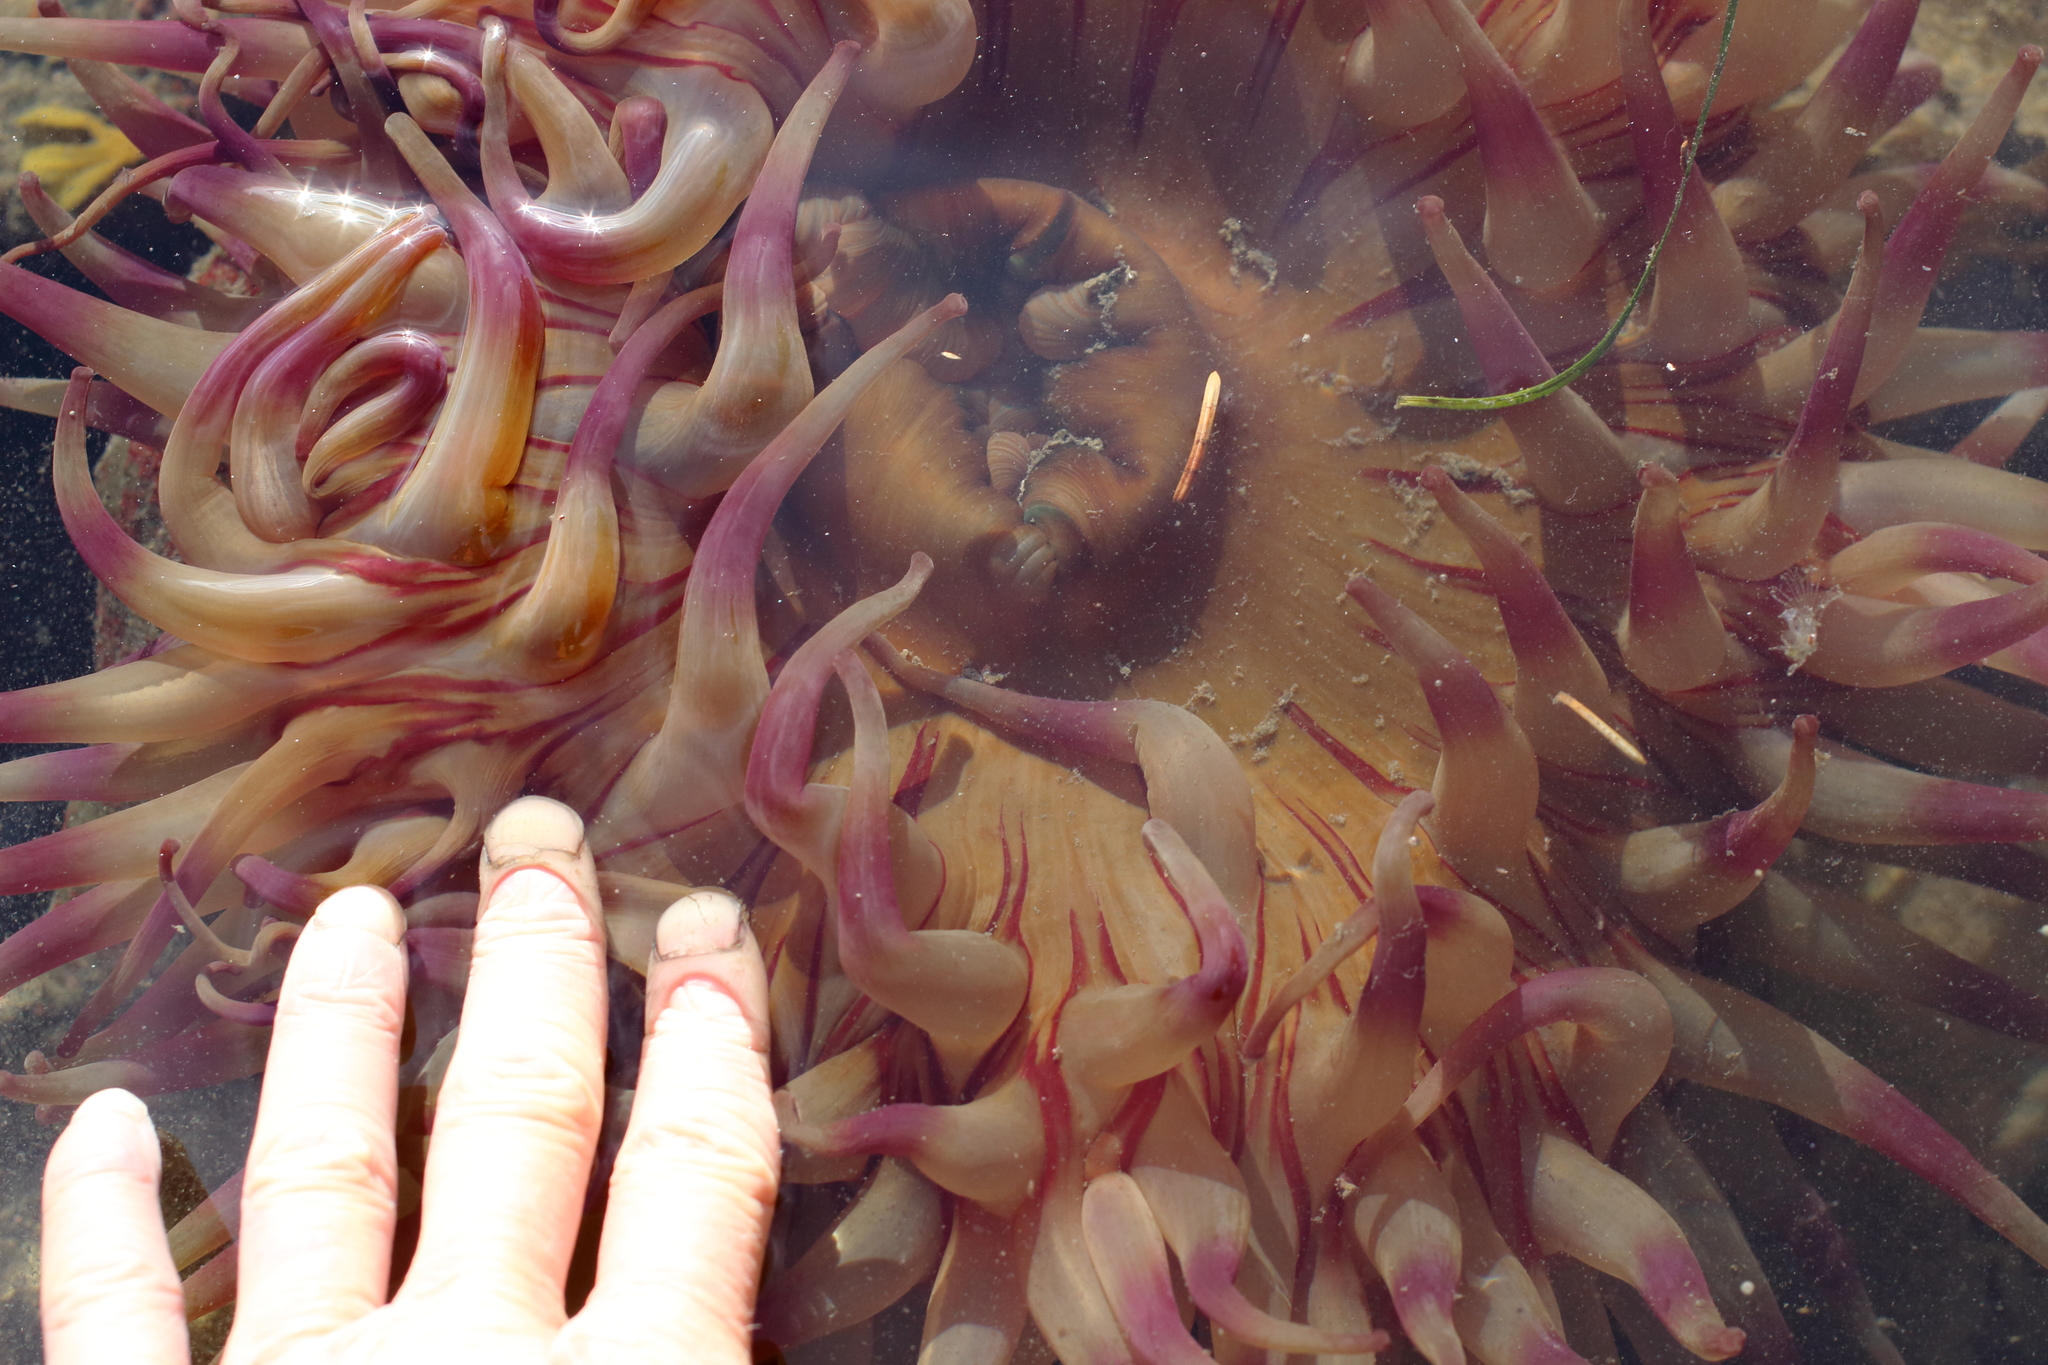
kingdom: Animalia
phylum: Cnidaria
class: Anthozoa
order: Actiniaria
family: Actiniidae
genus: Urticina
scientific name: Urticina grebelnyi
